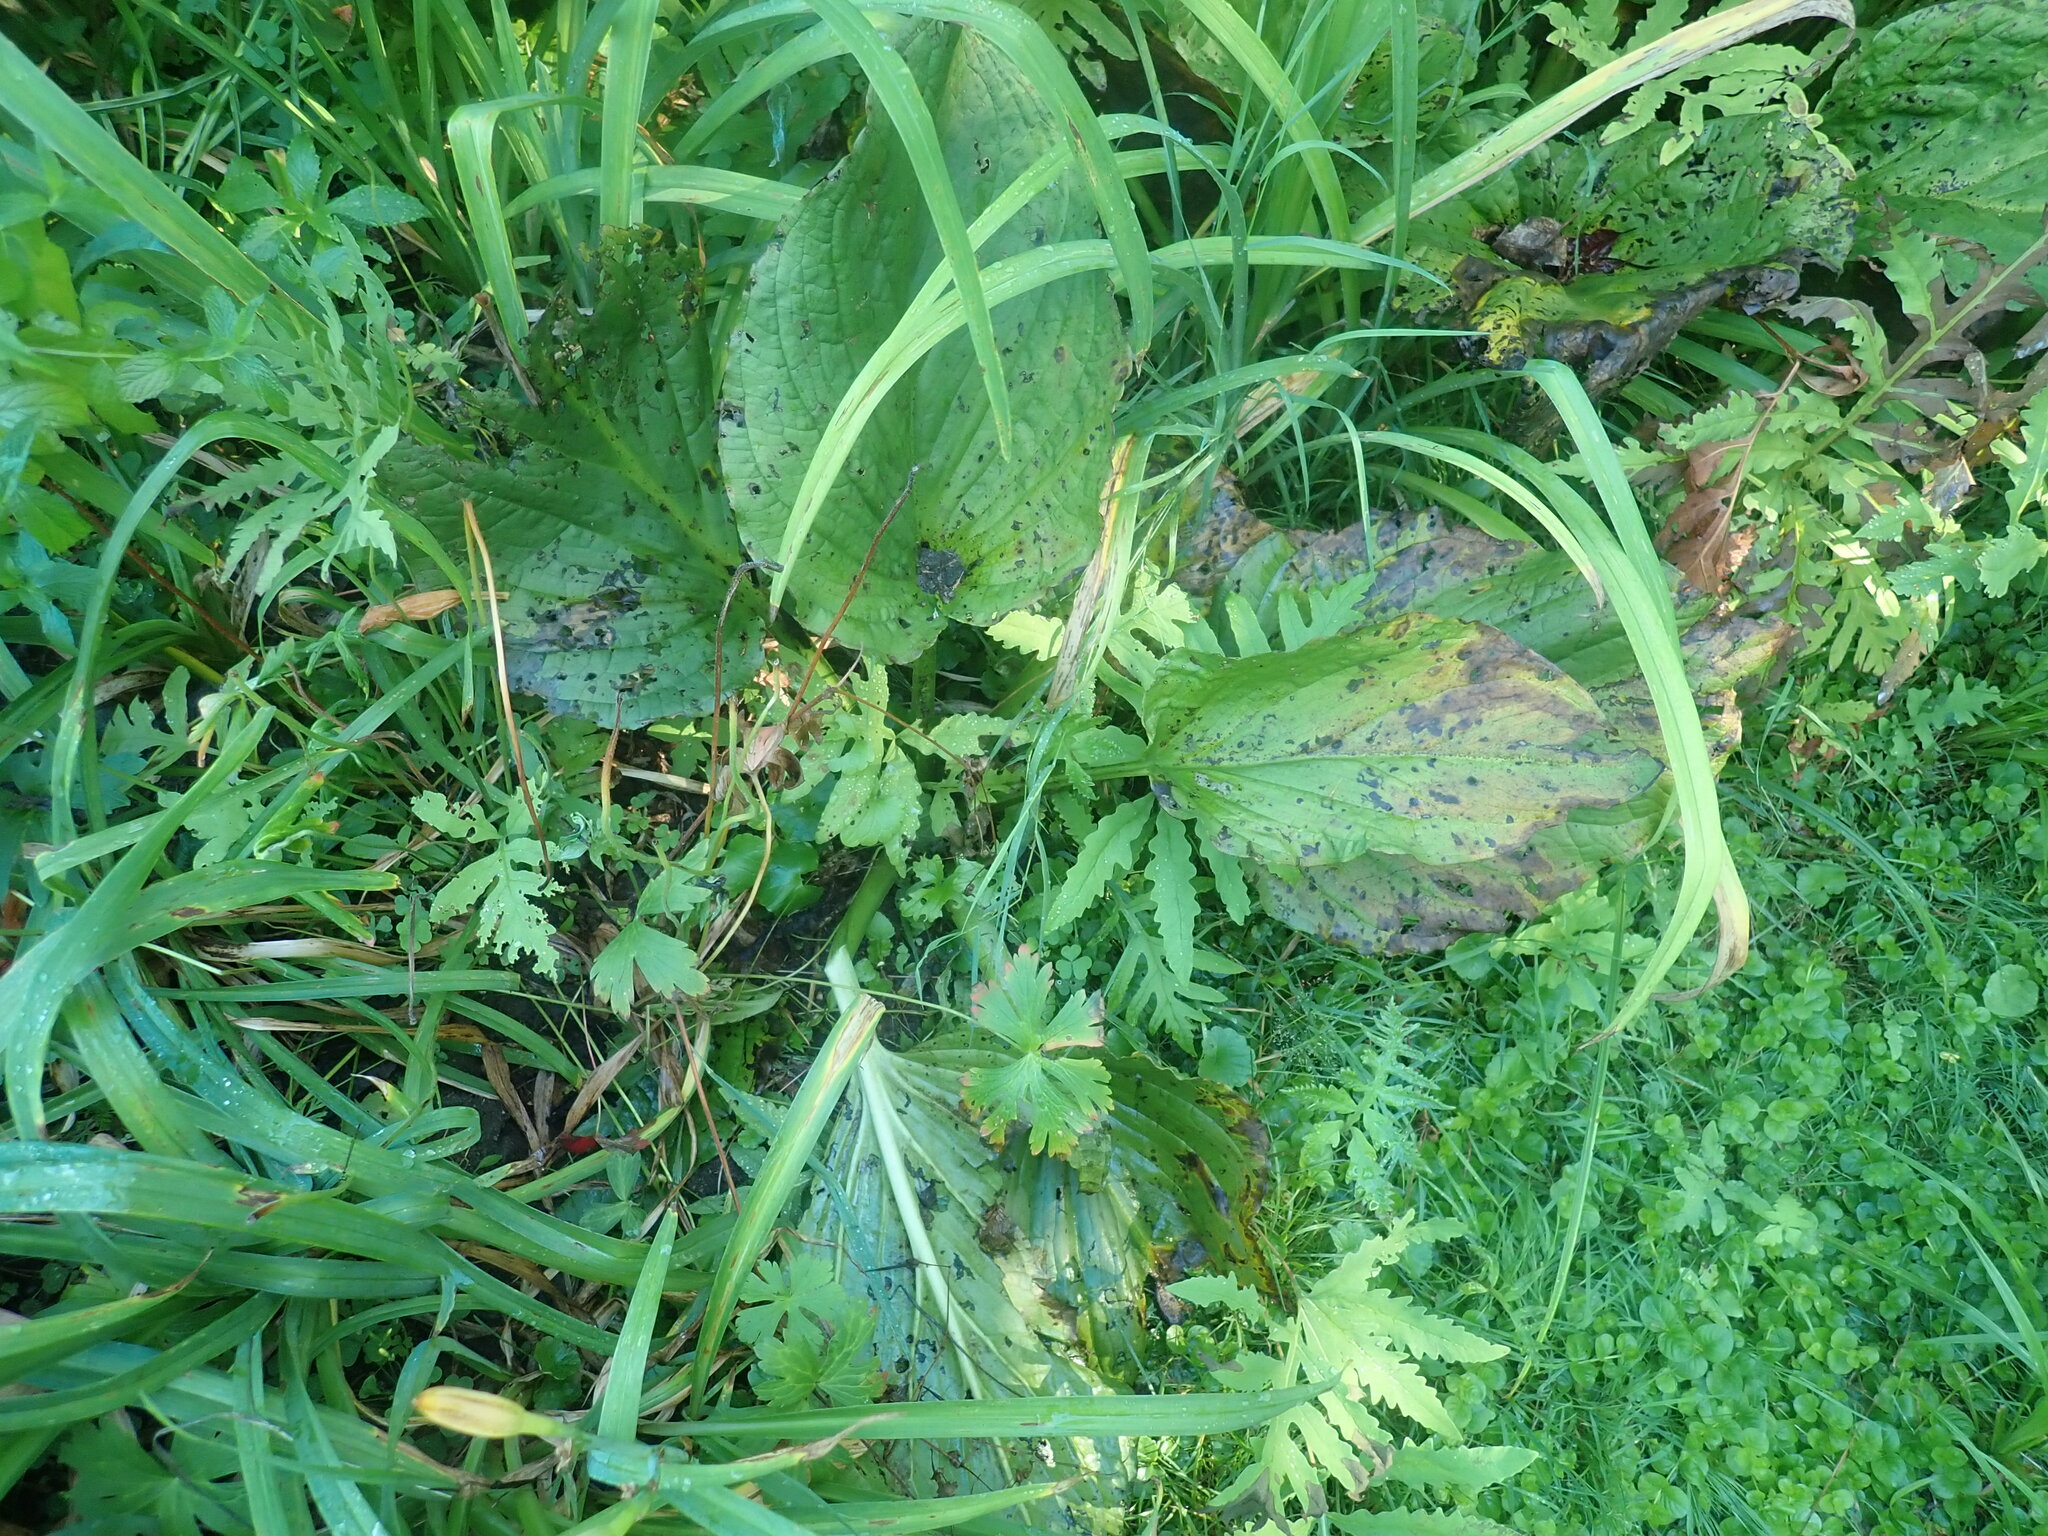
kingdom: Plantae
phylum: Tracheophyta
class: Liliopsida
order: Alismatales
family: Araceae
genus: Symplocarpus
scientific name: Symplocarpus foetidus
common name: Eastern skunk cabbage
